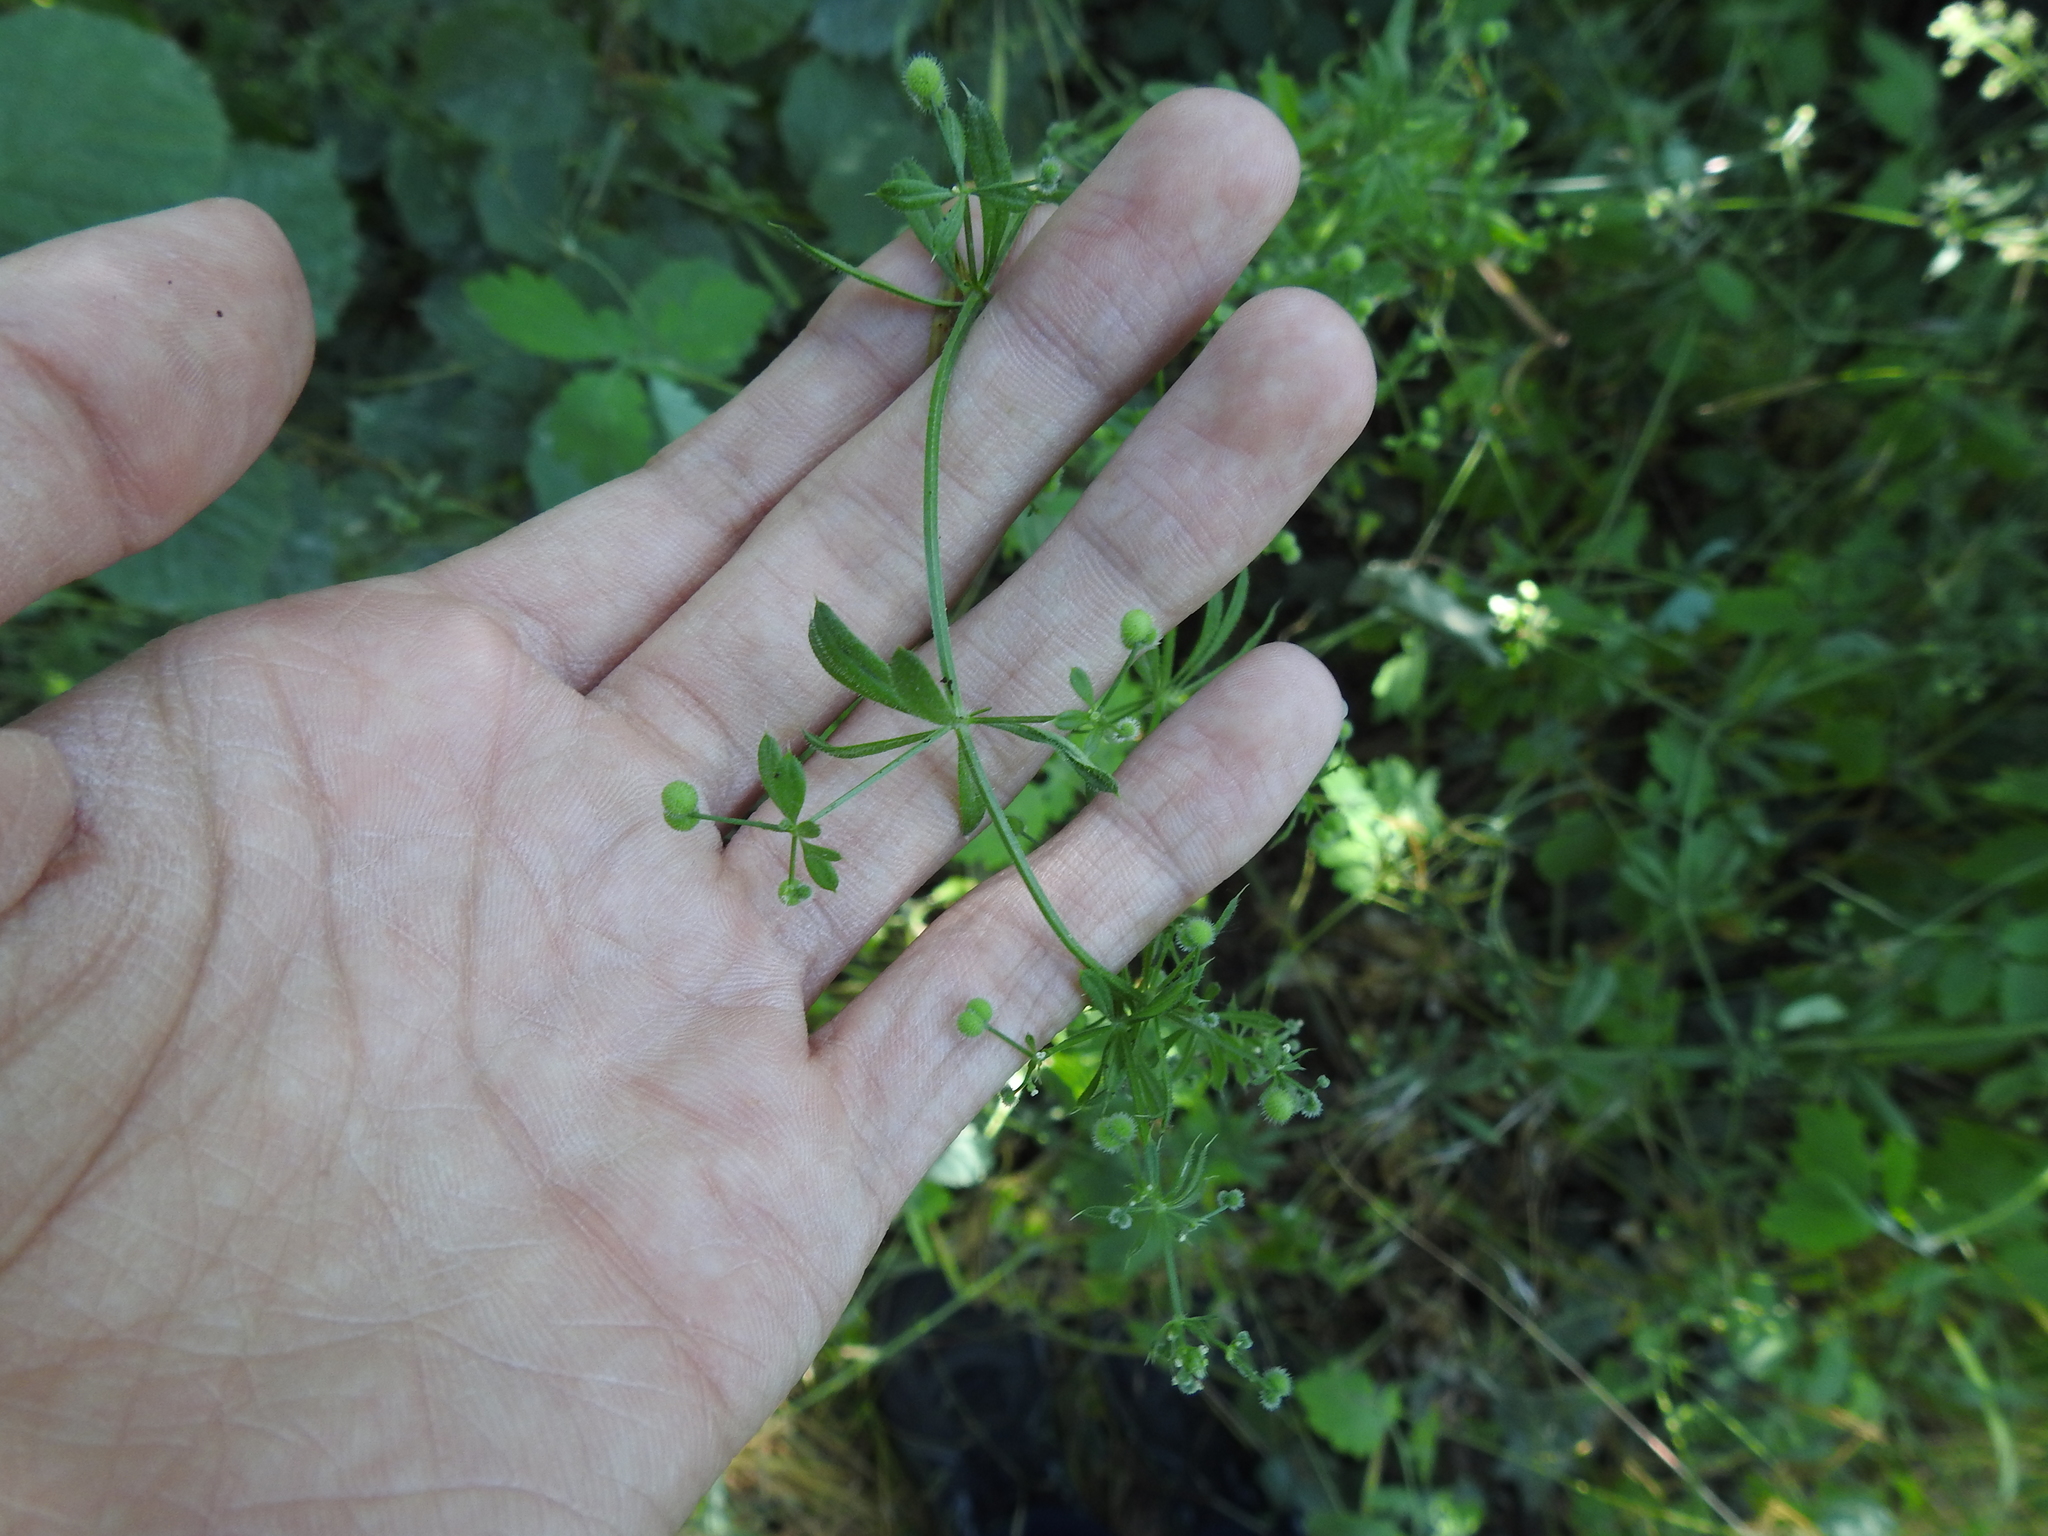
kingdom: Plantae
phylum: Tracheophyta
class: Magnoliopsida
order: Gentianales
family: Rubiaceae
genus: Galium
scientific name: Galium aparine
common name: Cleavers
